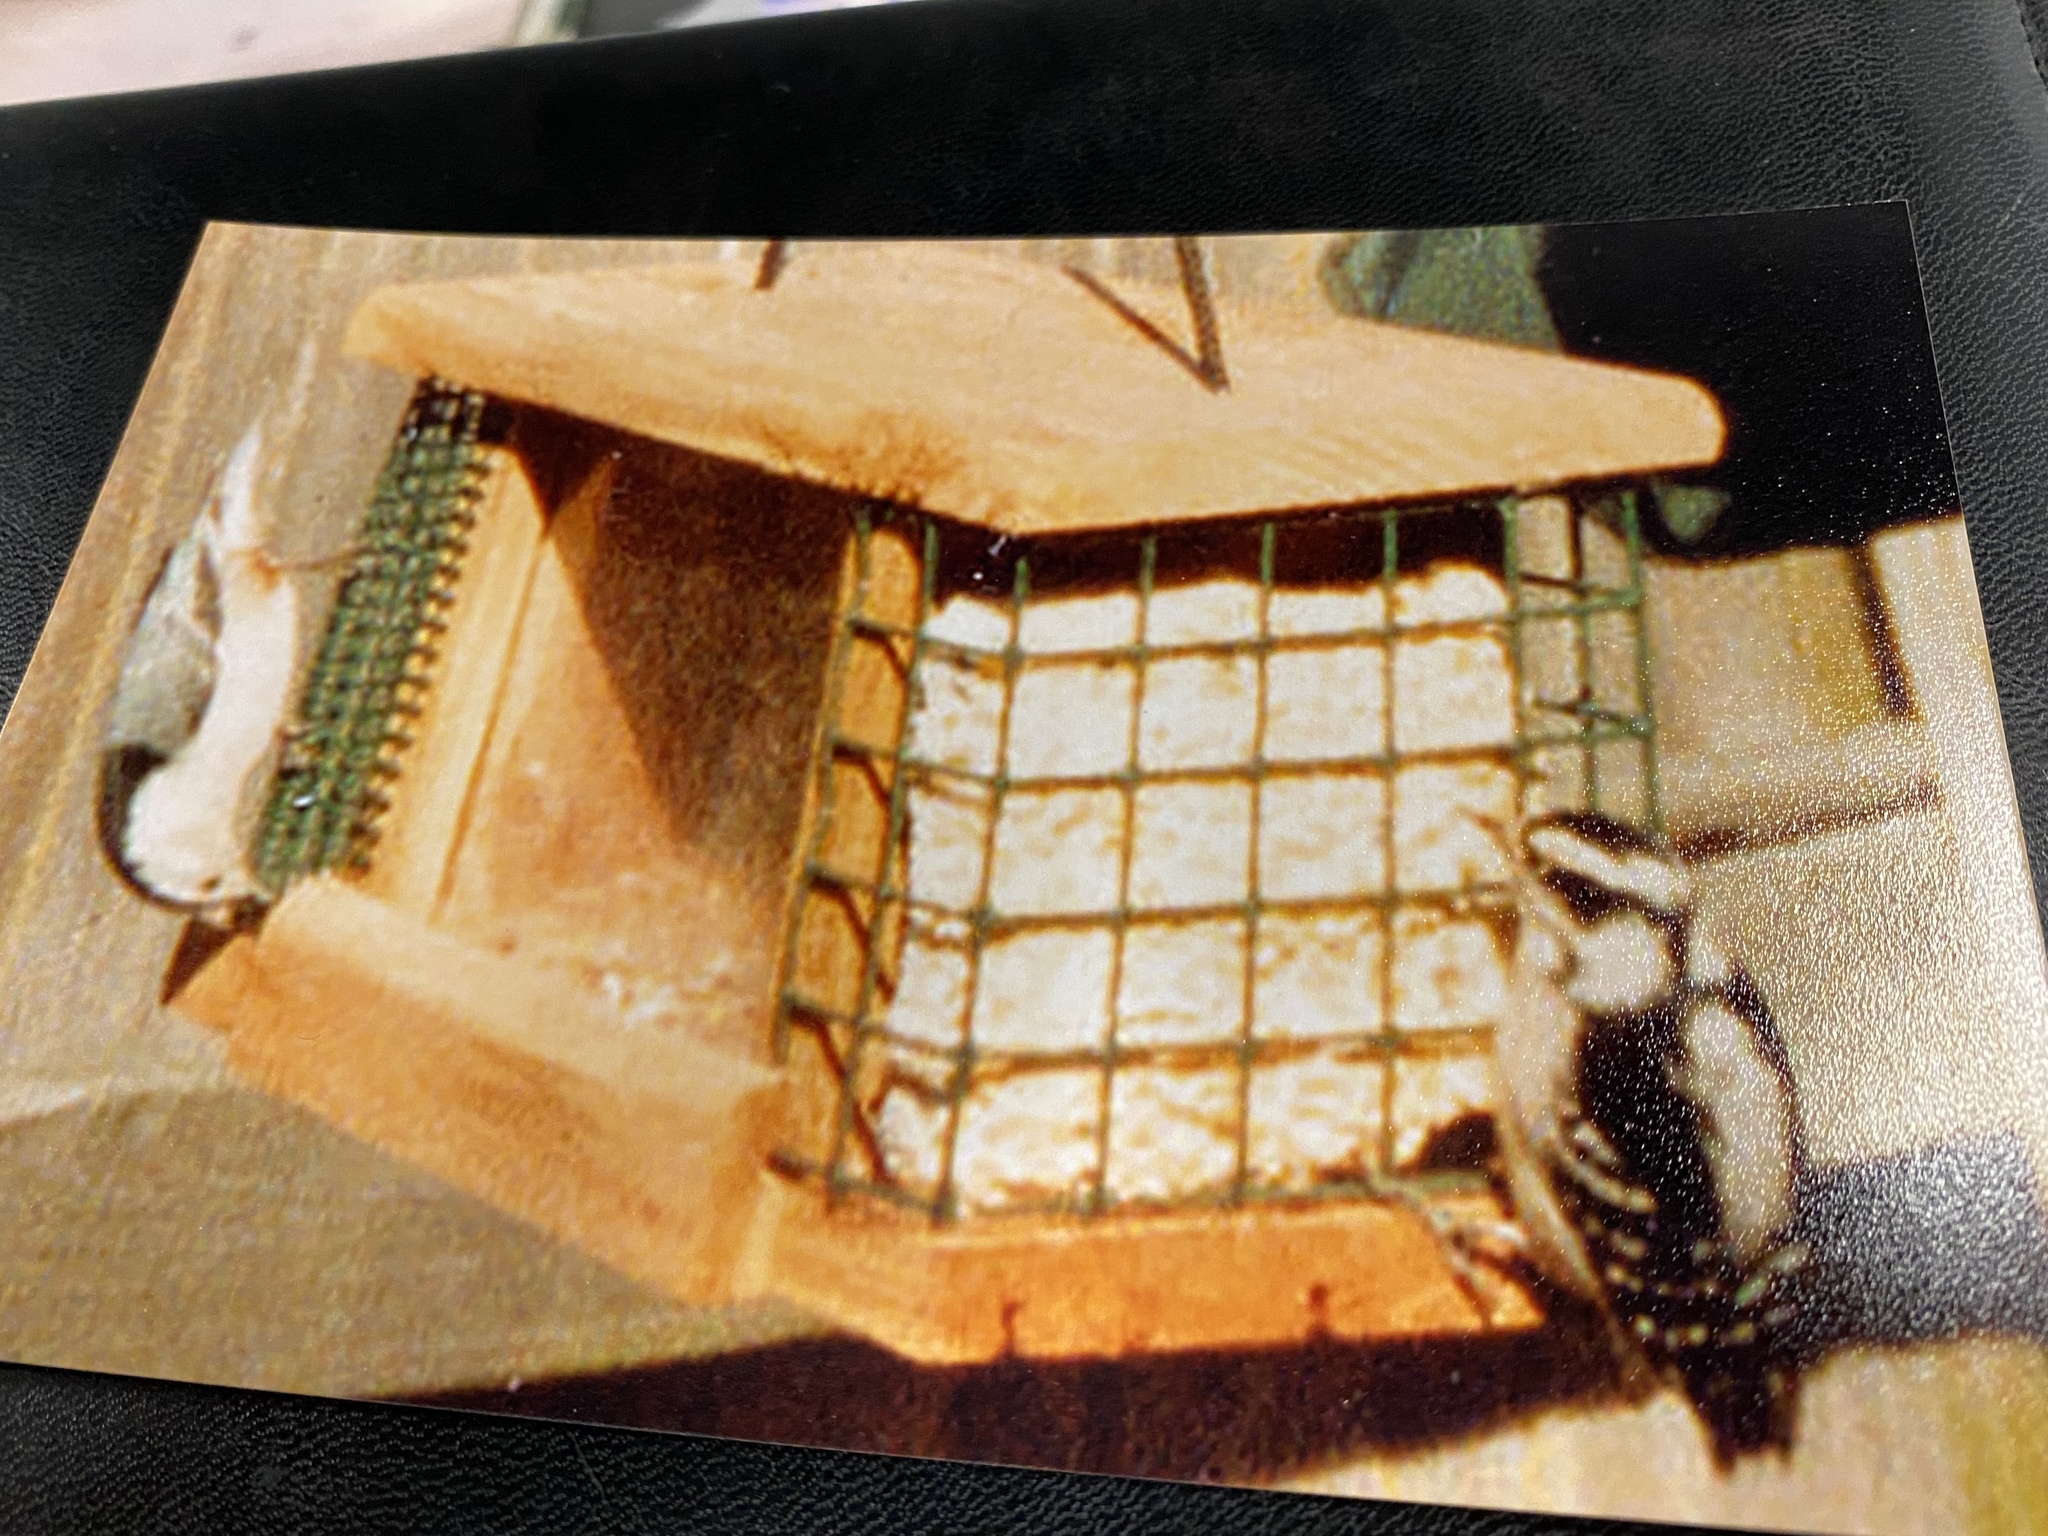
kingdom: Animalia
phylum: Chordata
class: Aves
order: Passeriformes
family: Sittidae
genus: Sitta
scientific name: Sitta carolinensis
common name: White-breasted nuthatch
